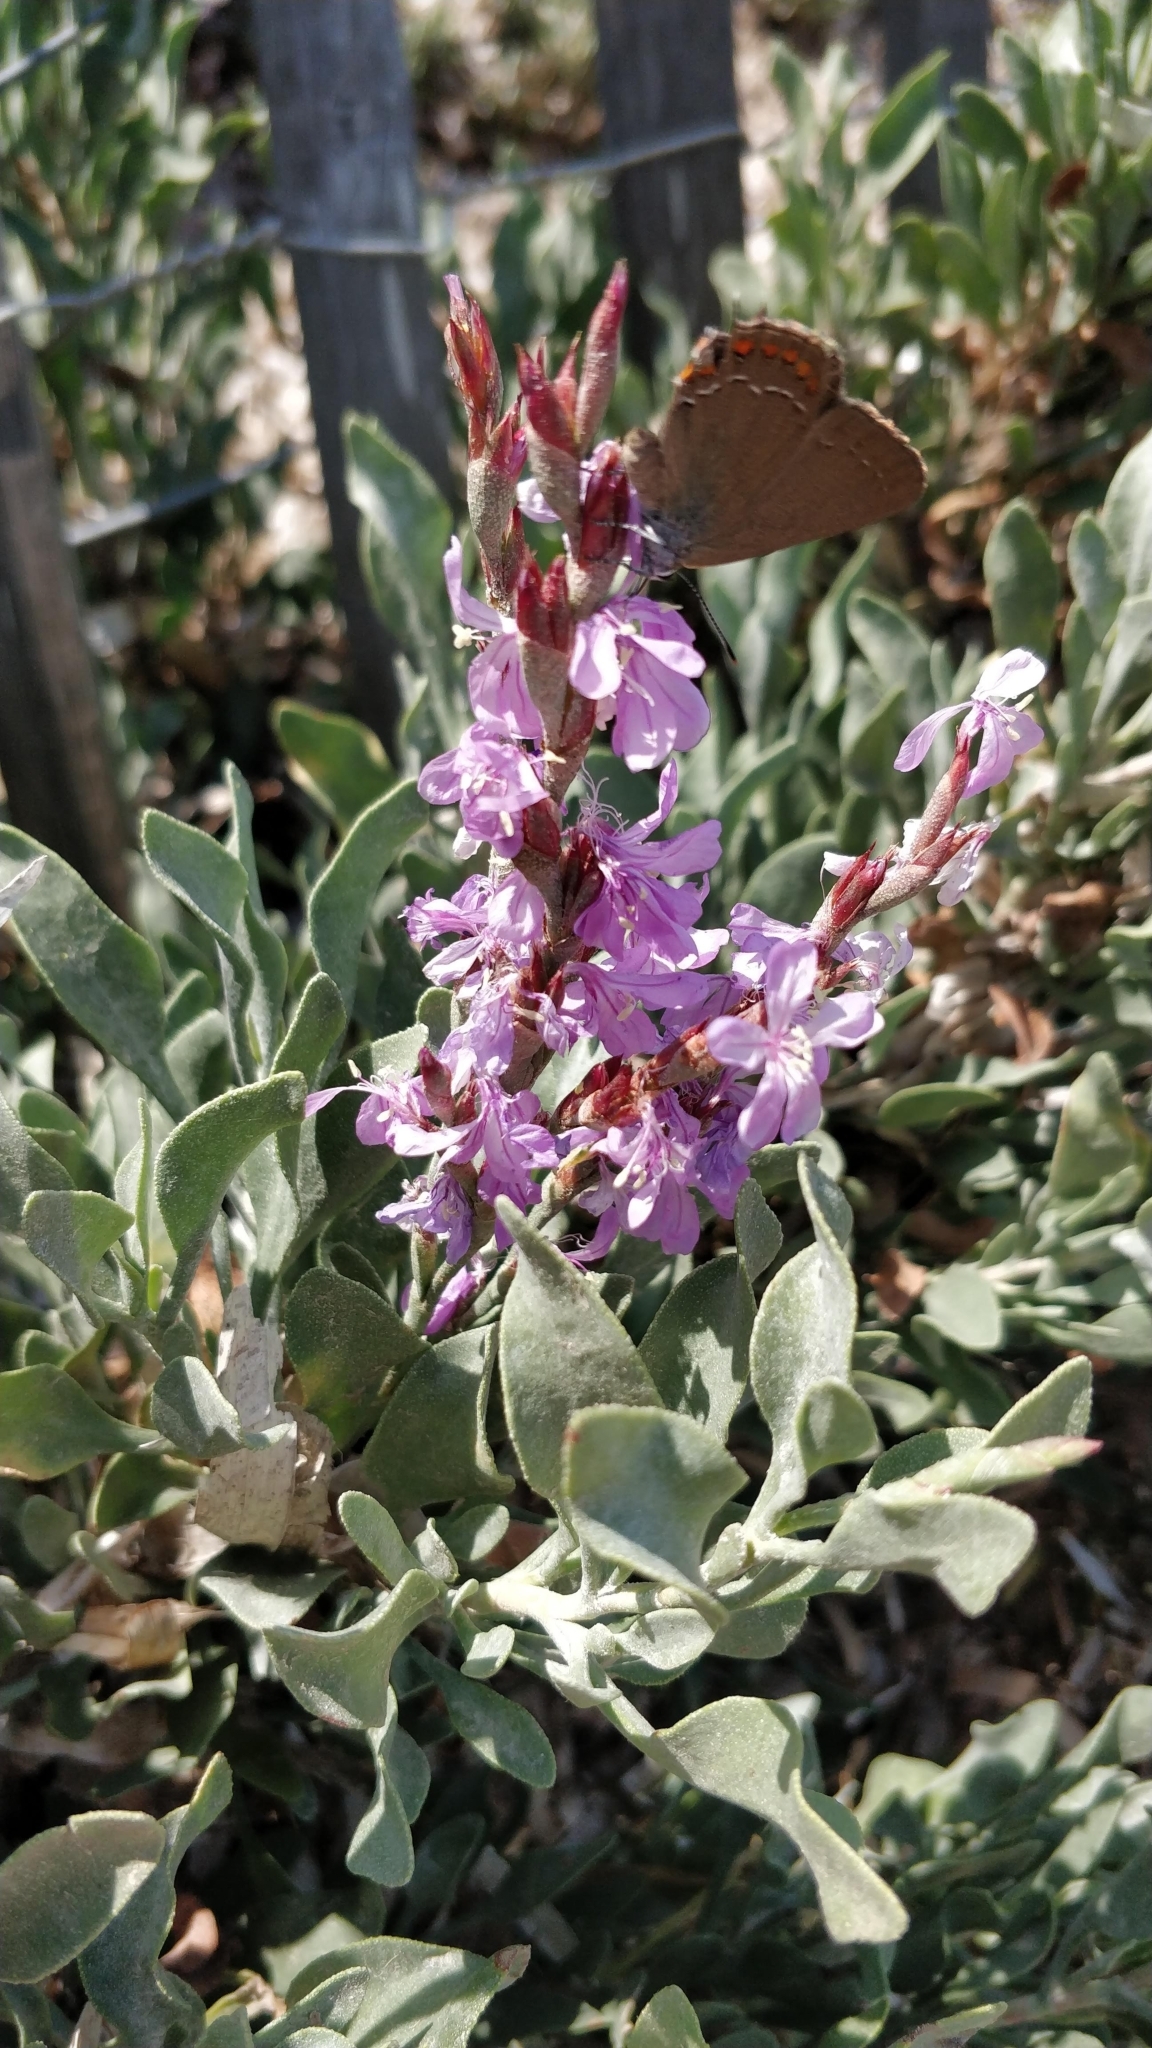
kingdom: Plantae
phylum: Tracheophyta
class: Magnoliopsida
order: Caryophyllales
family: Plumbaginaceae
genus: Limoniastrum
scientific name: Limoniastrum monopetalum
